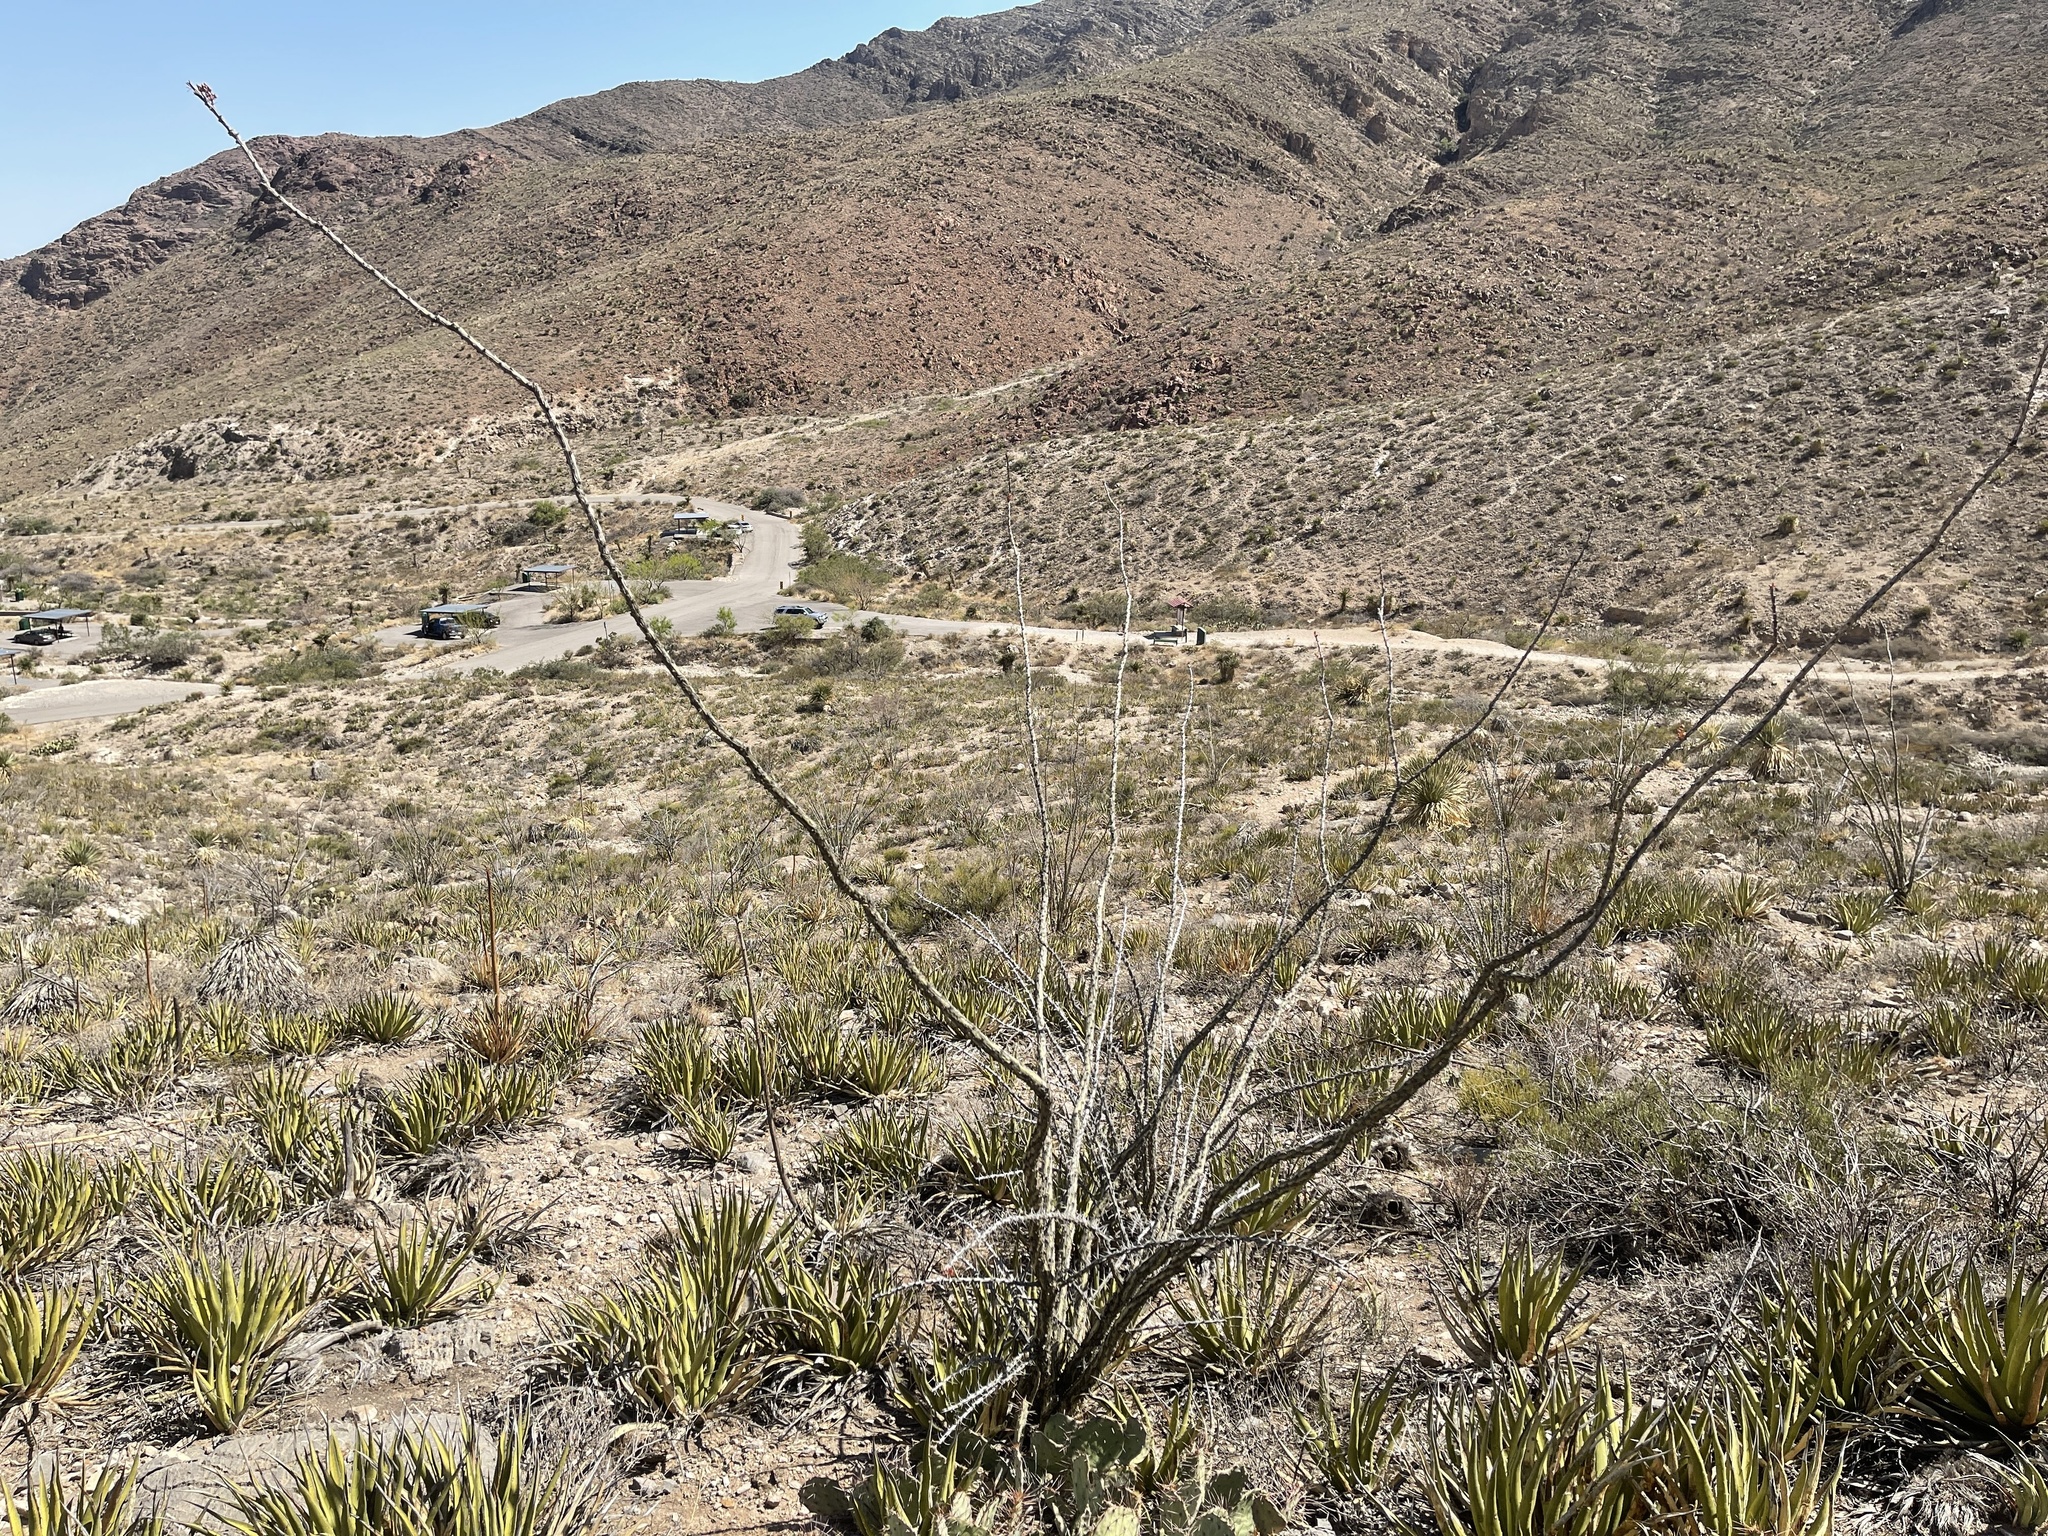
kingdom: Plantae
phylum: Tracheophyta
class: Magnoliopsida
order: Ericales
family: Fouquieriaceae
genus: Fouquieria
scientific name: Fouquieria splendens
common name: Vine-cactus
